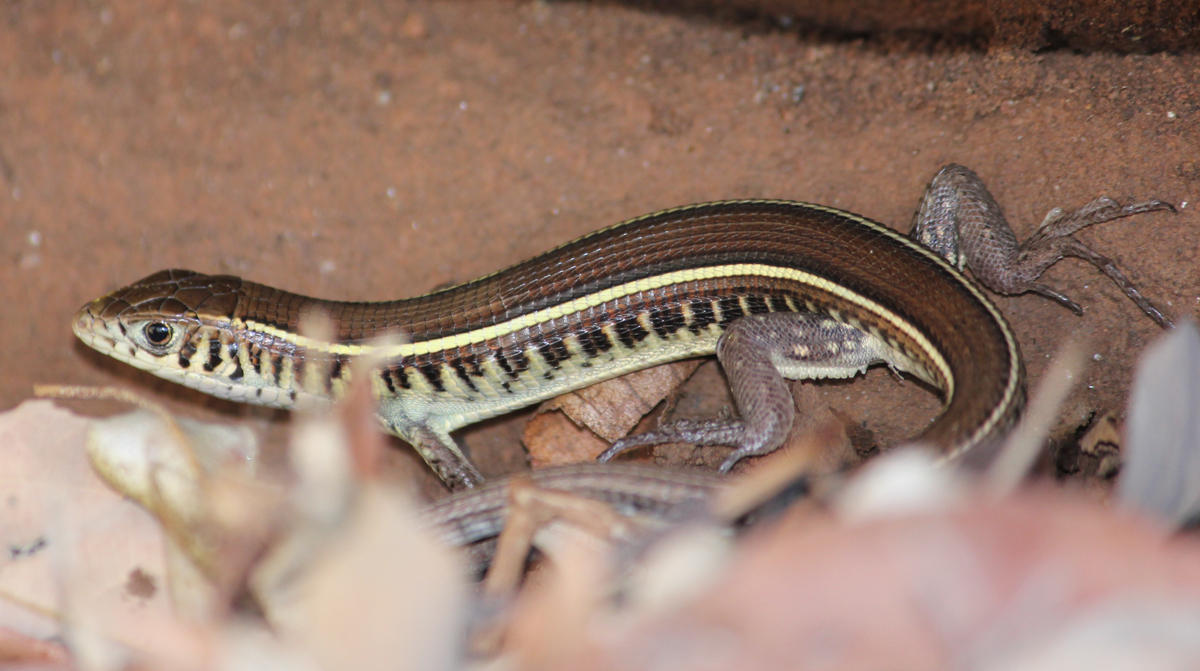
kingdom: Animalia
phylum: Chordata
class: Squamata
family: Gerrhosauridae
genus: Gerrhosaurus
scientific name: Gerrhosaurus flavigularis
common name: Yellow-throated plated lizard
